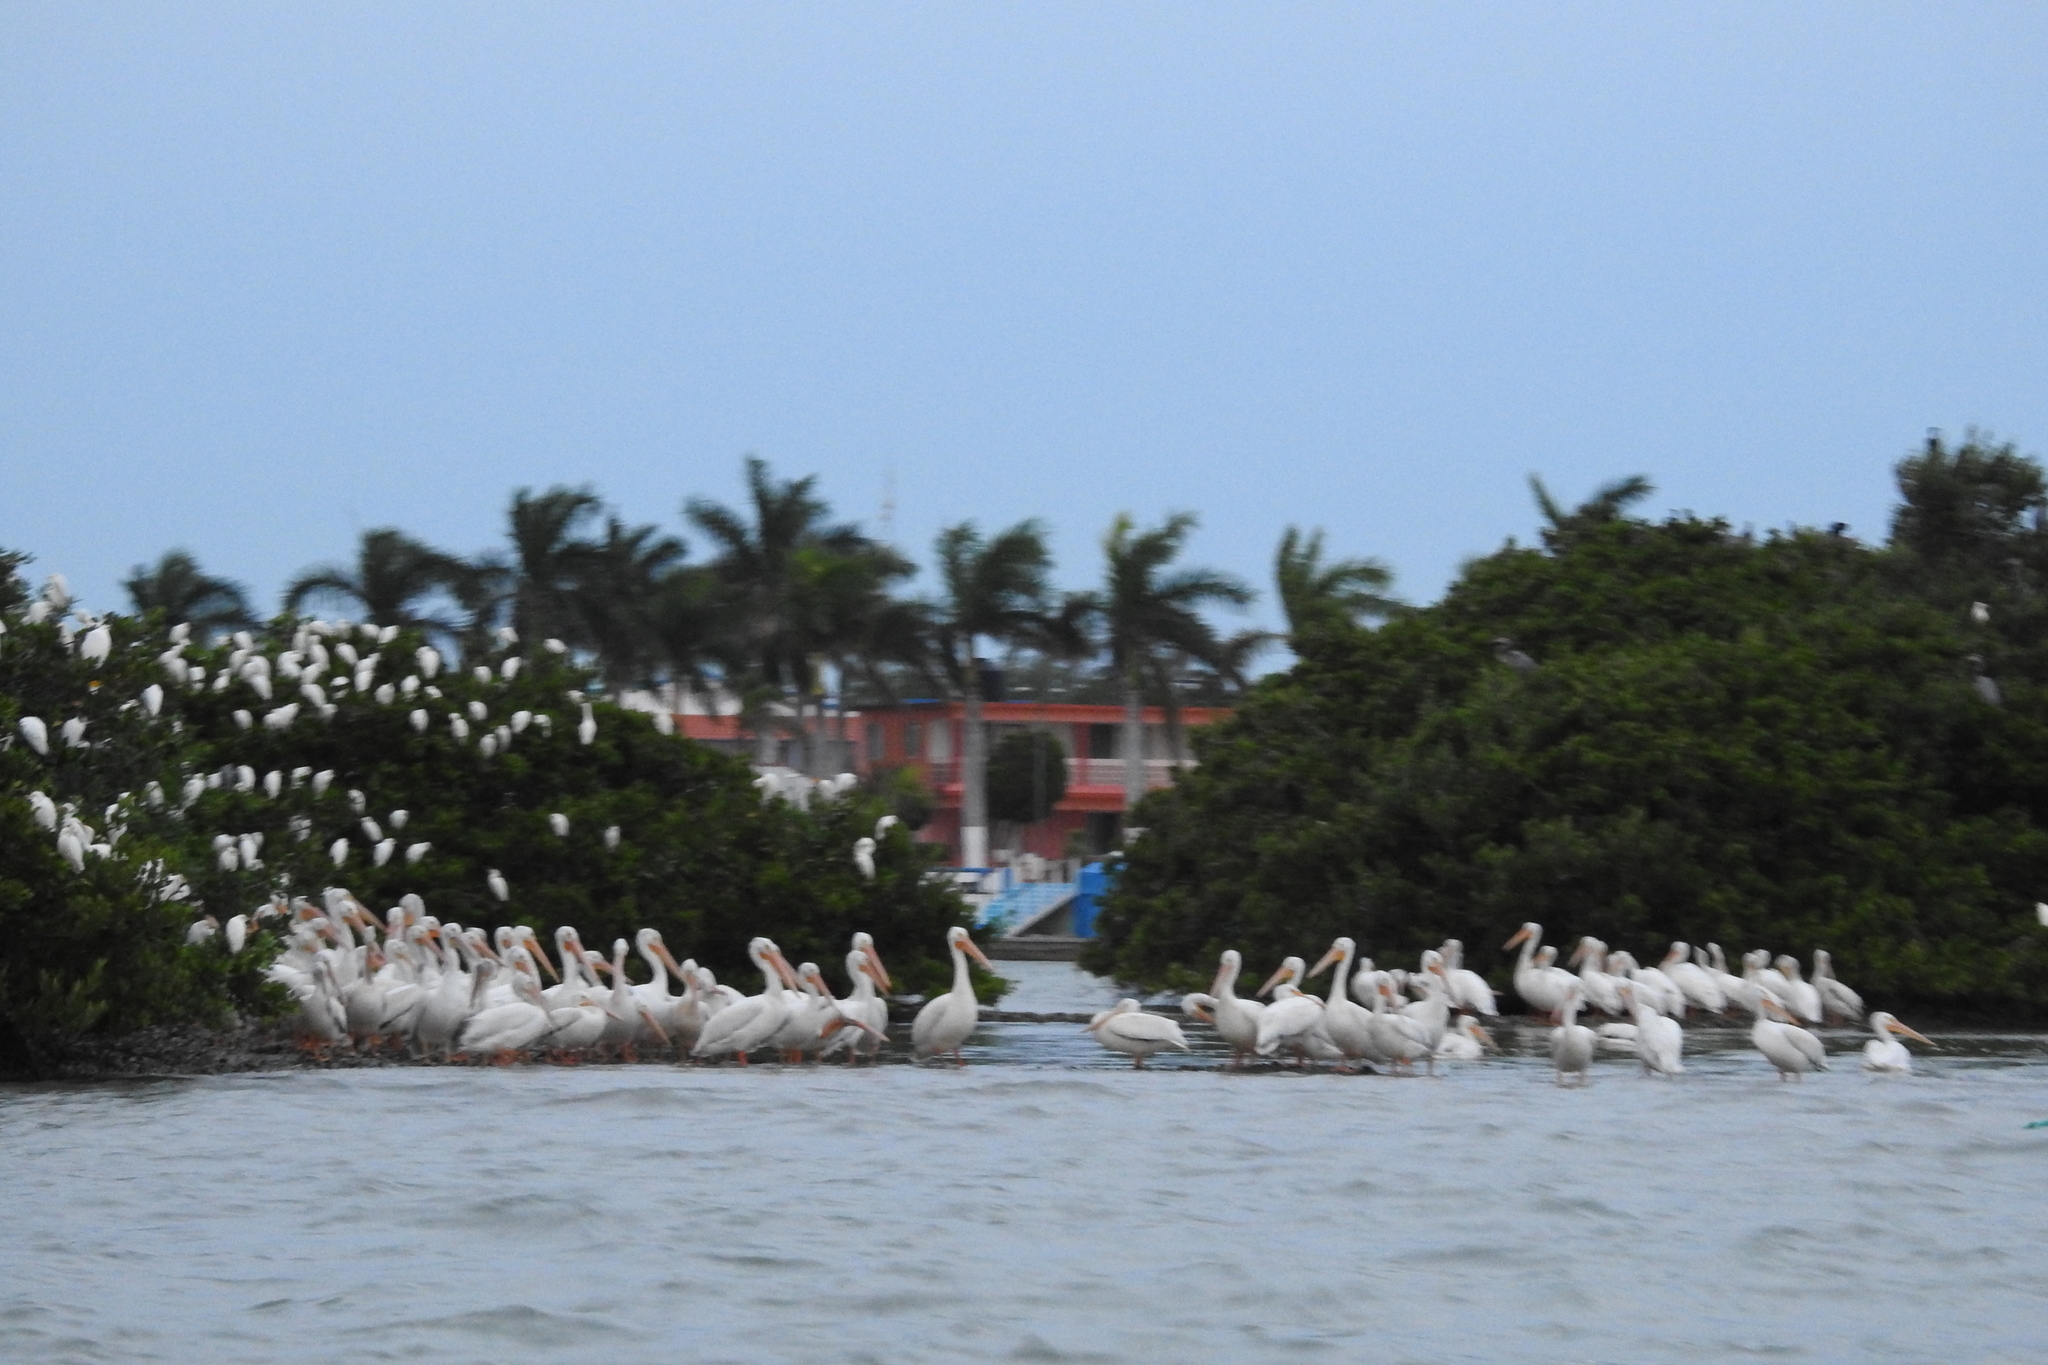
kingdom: Animalia
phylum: Chordata
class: Aves
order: Pelecaniformes
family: Pelecanidae
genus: Pelecanus
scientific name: Pelecanus erythrorhynchos
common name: American white pelican
